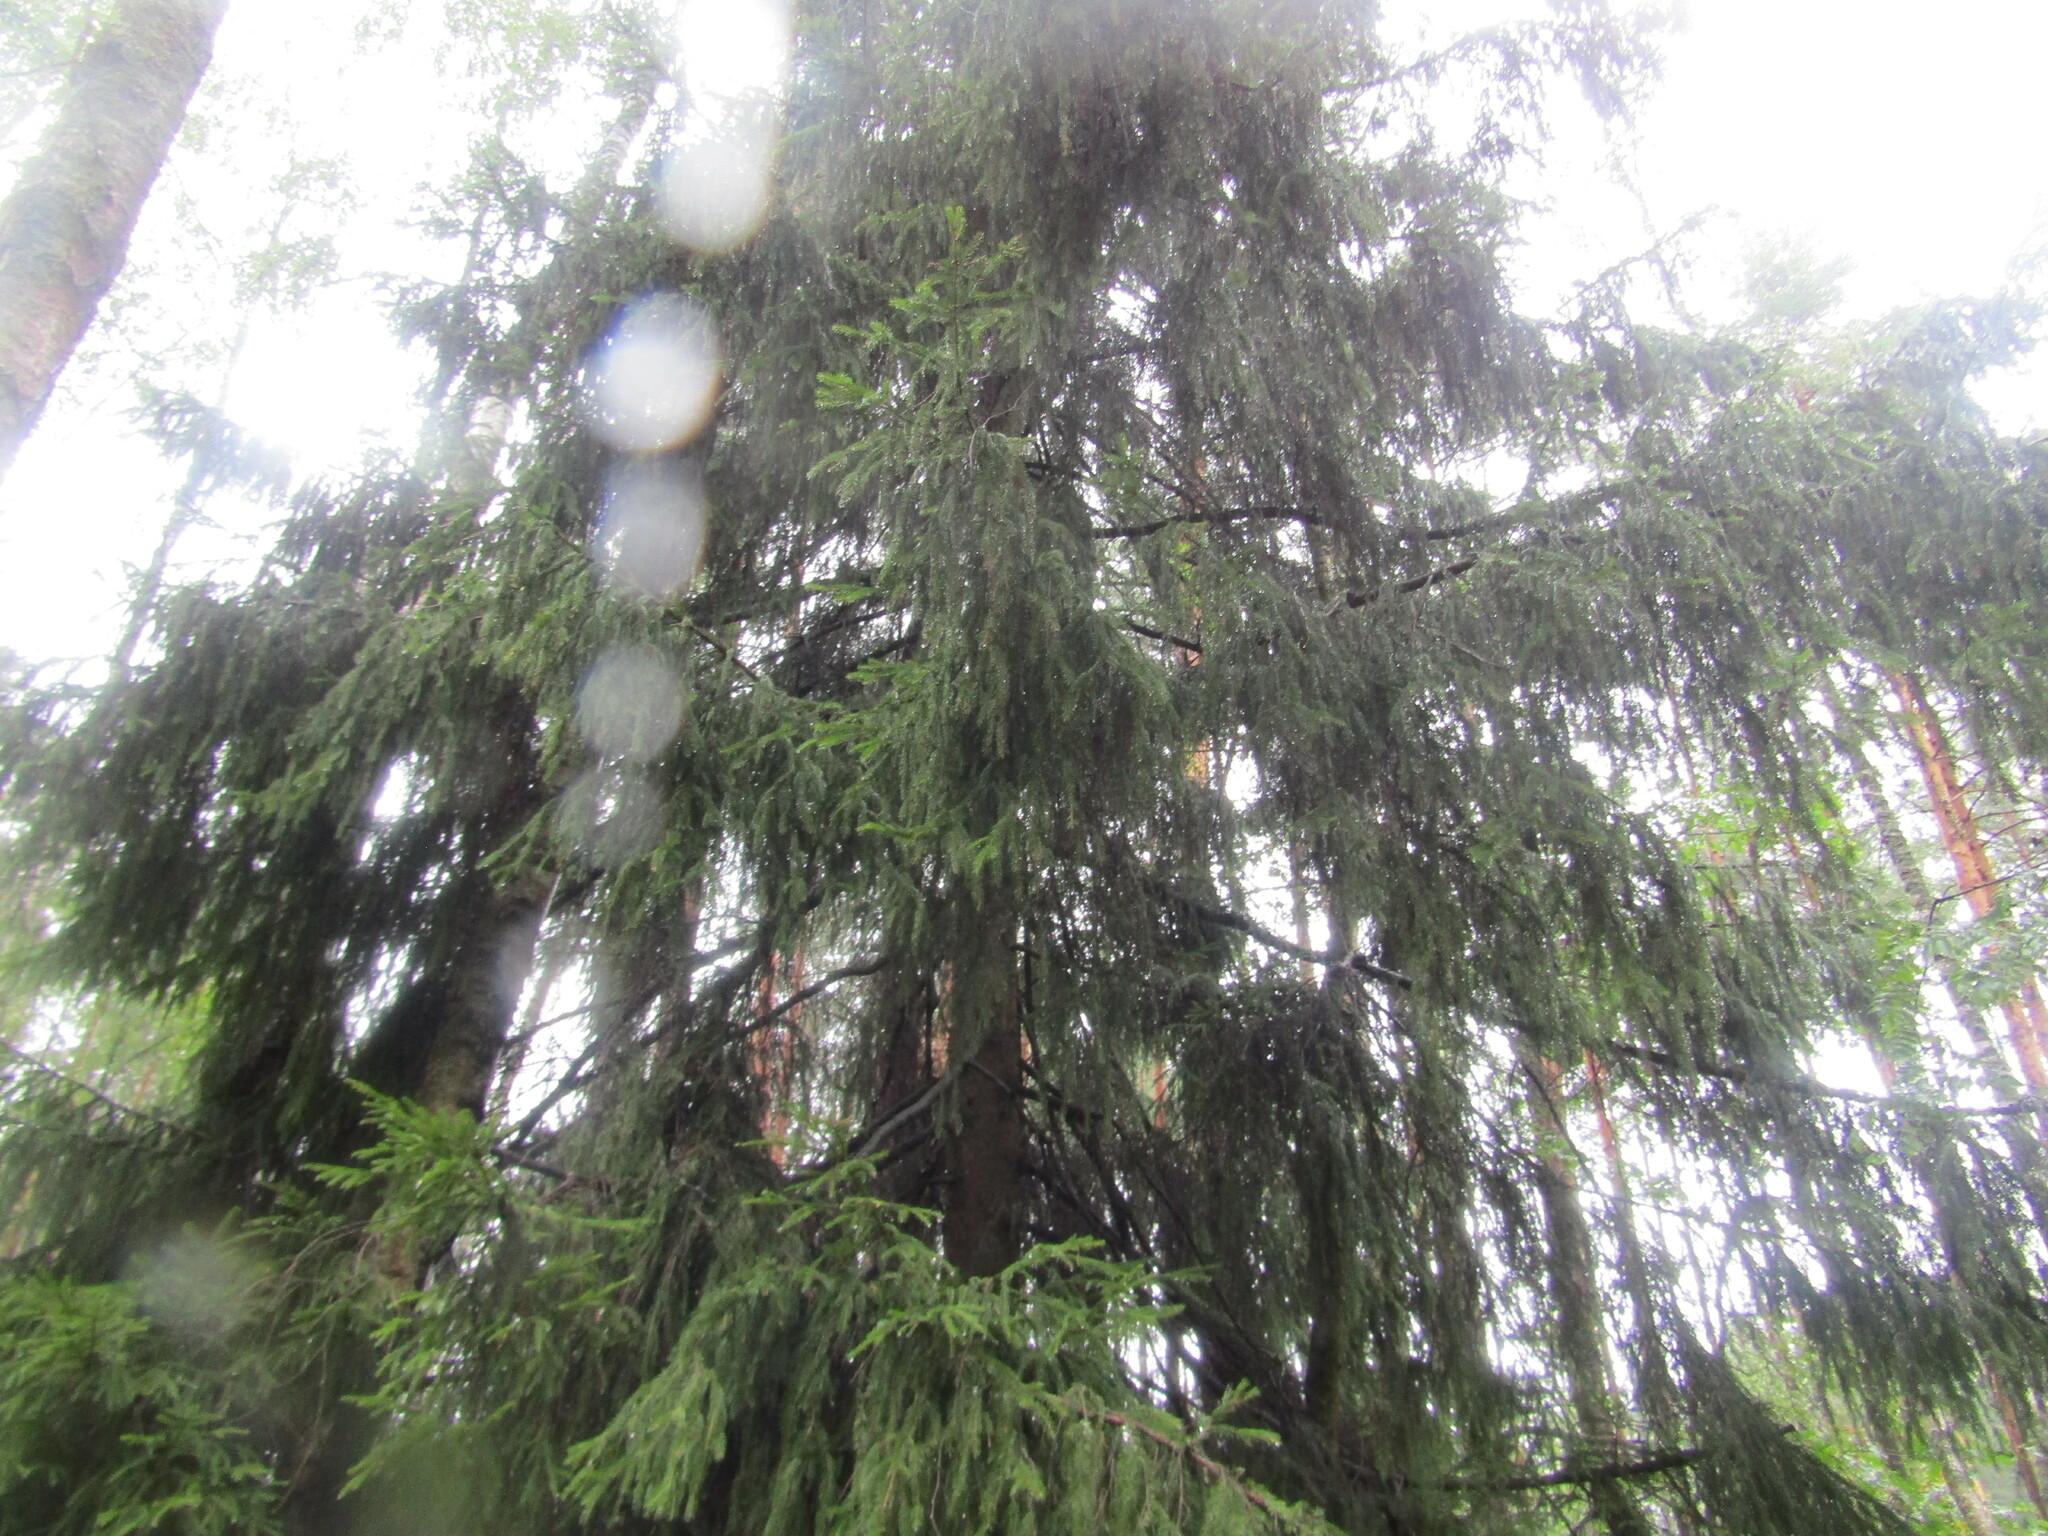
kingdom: Plantae
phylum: Tracheophyta
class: Pinopsida
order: Pinales
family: Pinaceae
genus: Picea
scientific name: Picea abies
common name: Norway spruce
